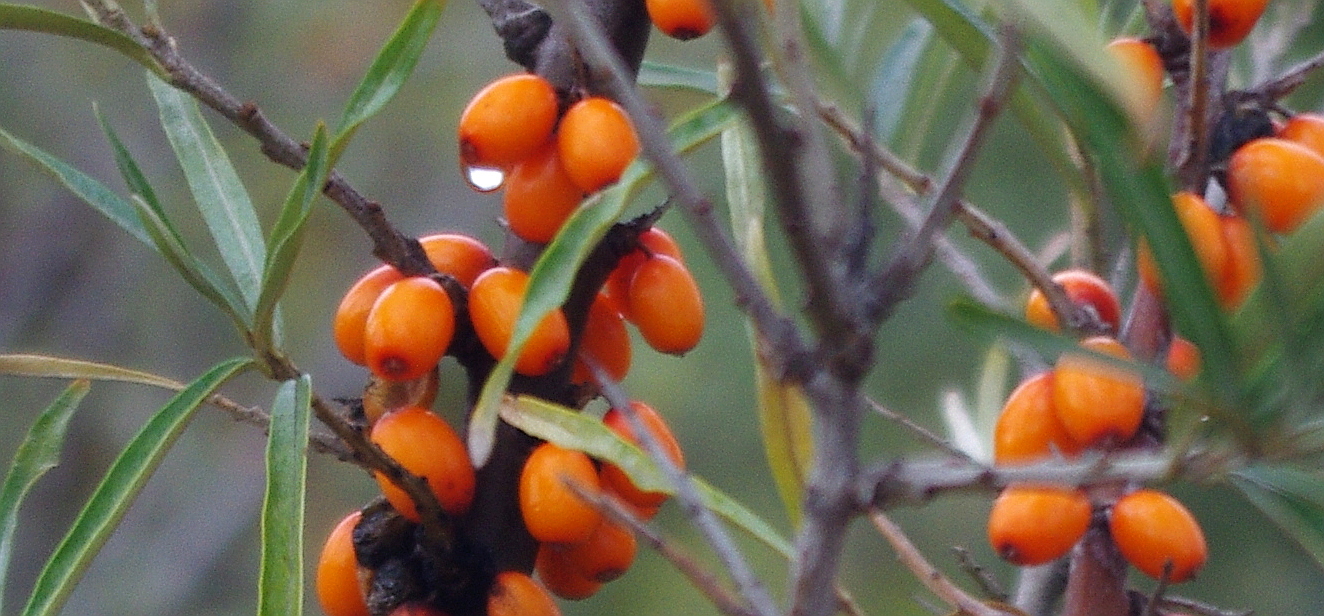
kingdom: Plantae
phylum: Tracheophyta
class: Magnoliopsida
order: Rosales
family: Elaeagnaceae
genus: Hippophae
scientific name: Hippophae rhamnoides
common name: Sea-buckthorn
